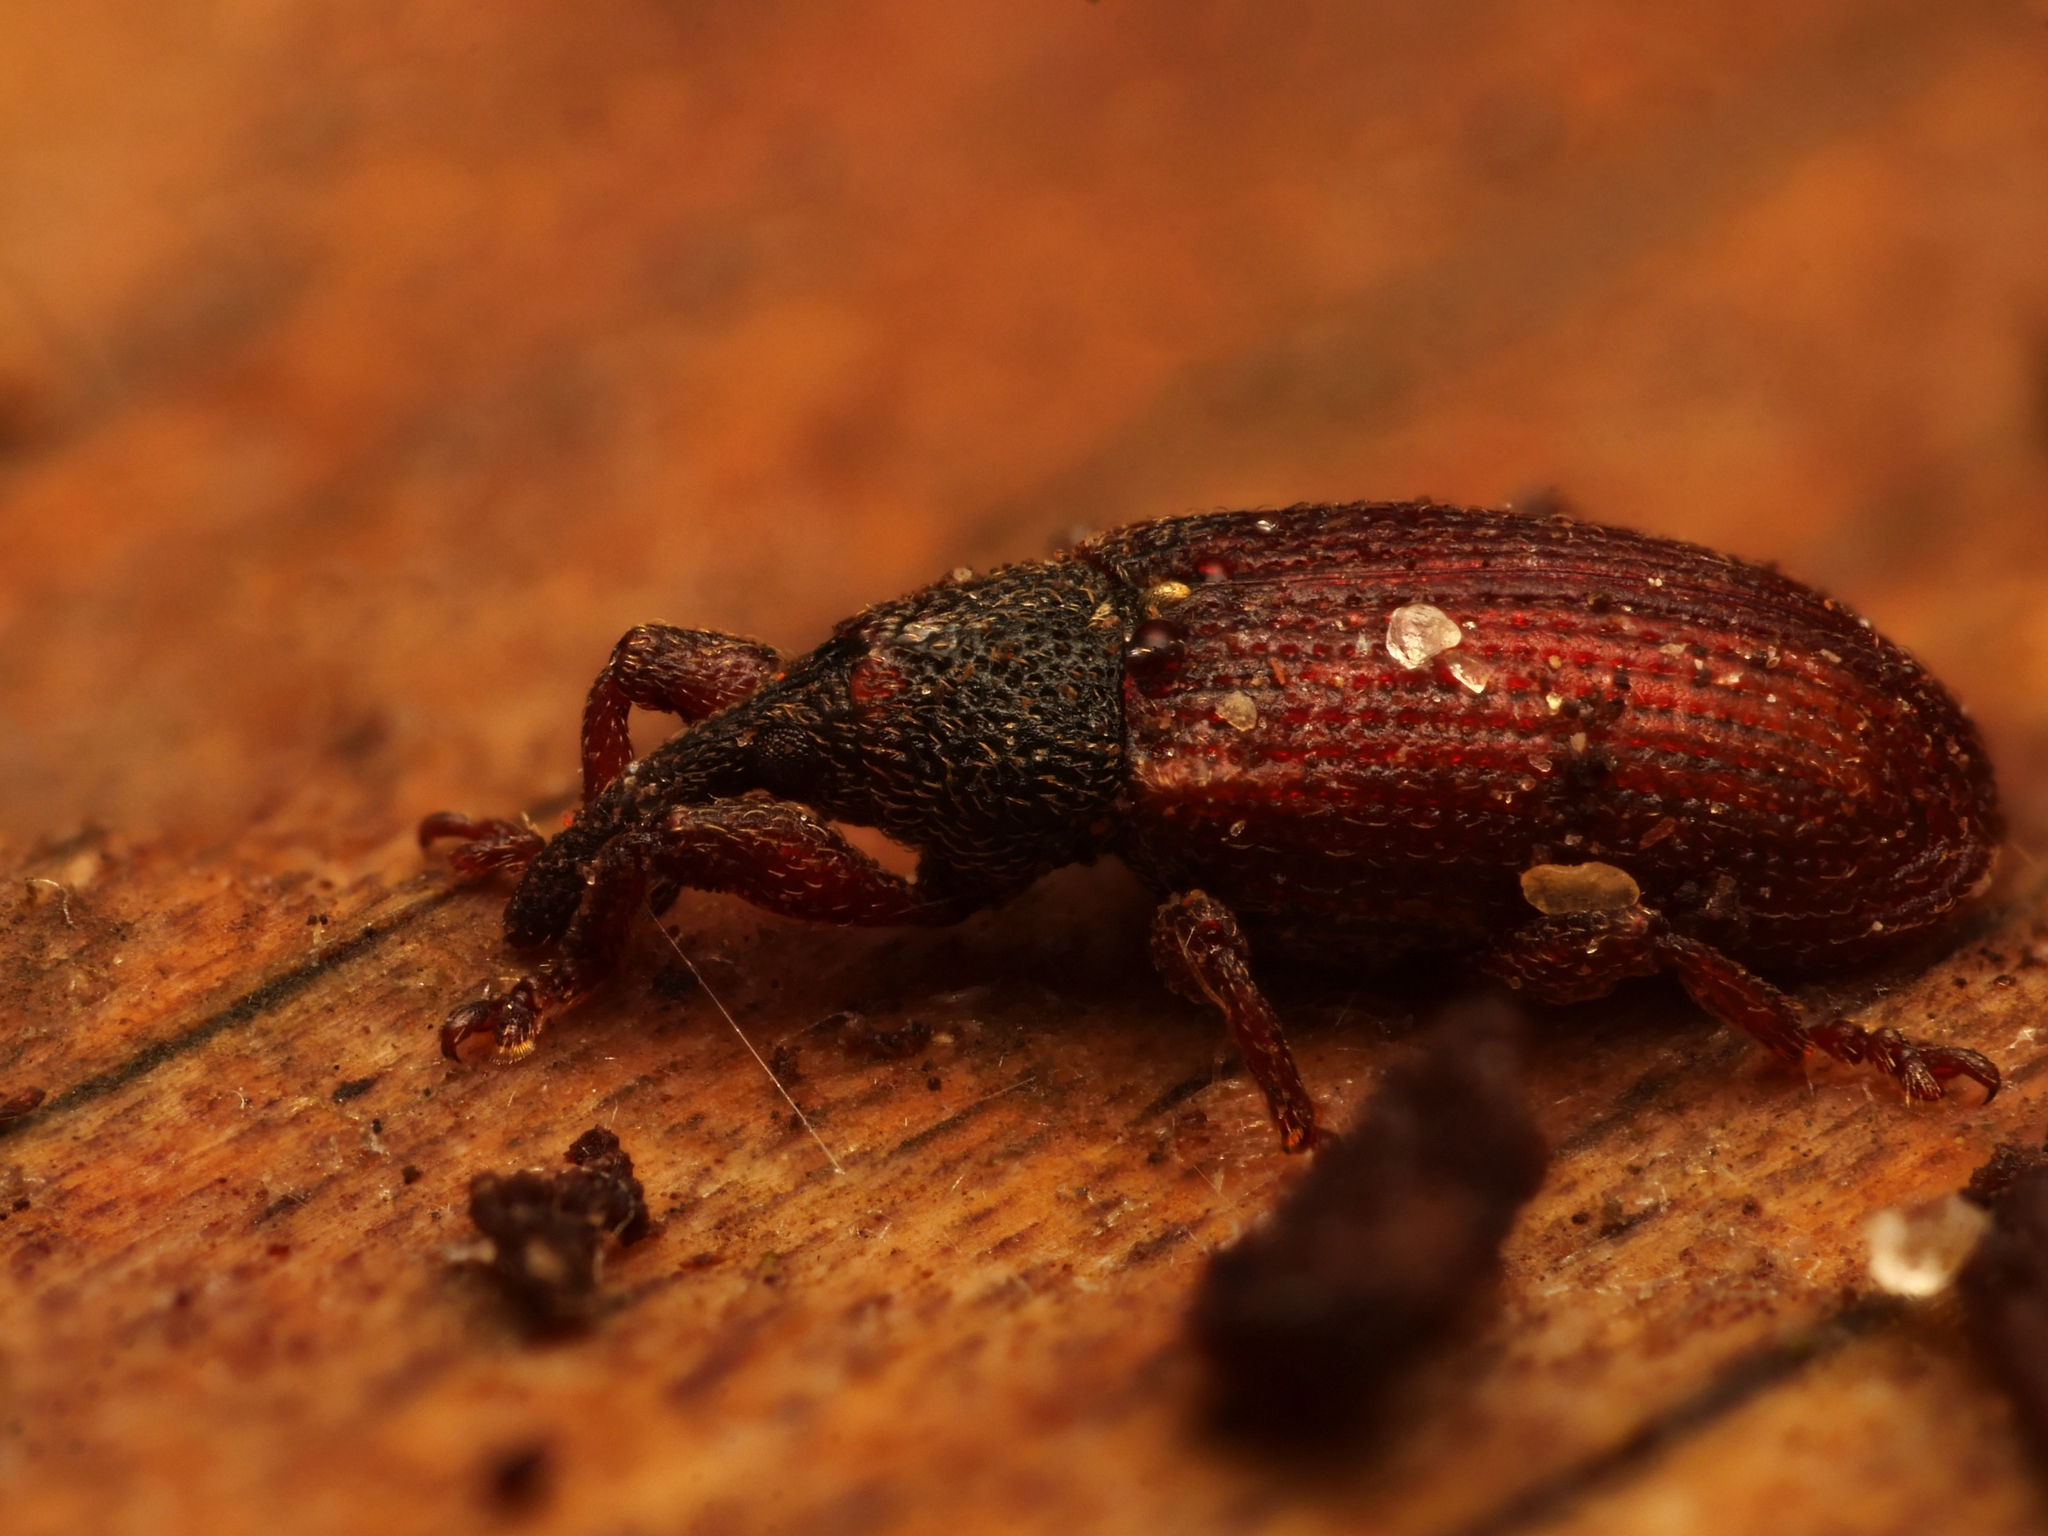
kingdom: Animalia
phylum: Arthropoda
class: Insecta
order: Coleoptera
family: Curculionidae
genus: Bradybatus
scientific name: Bradybatus kellneri
